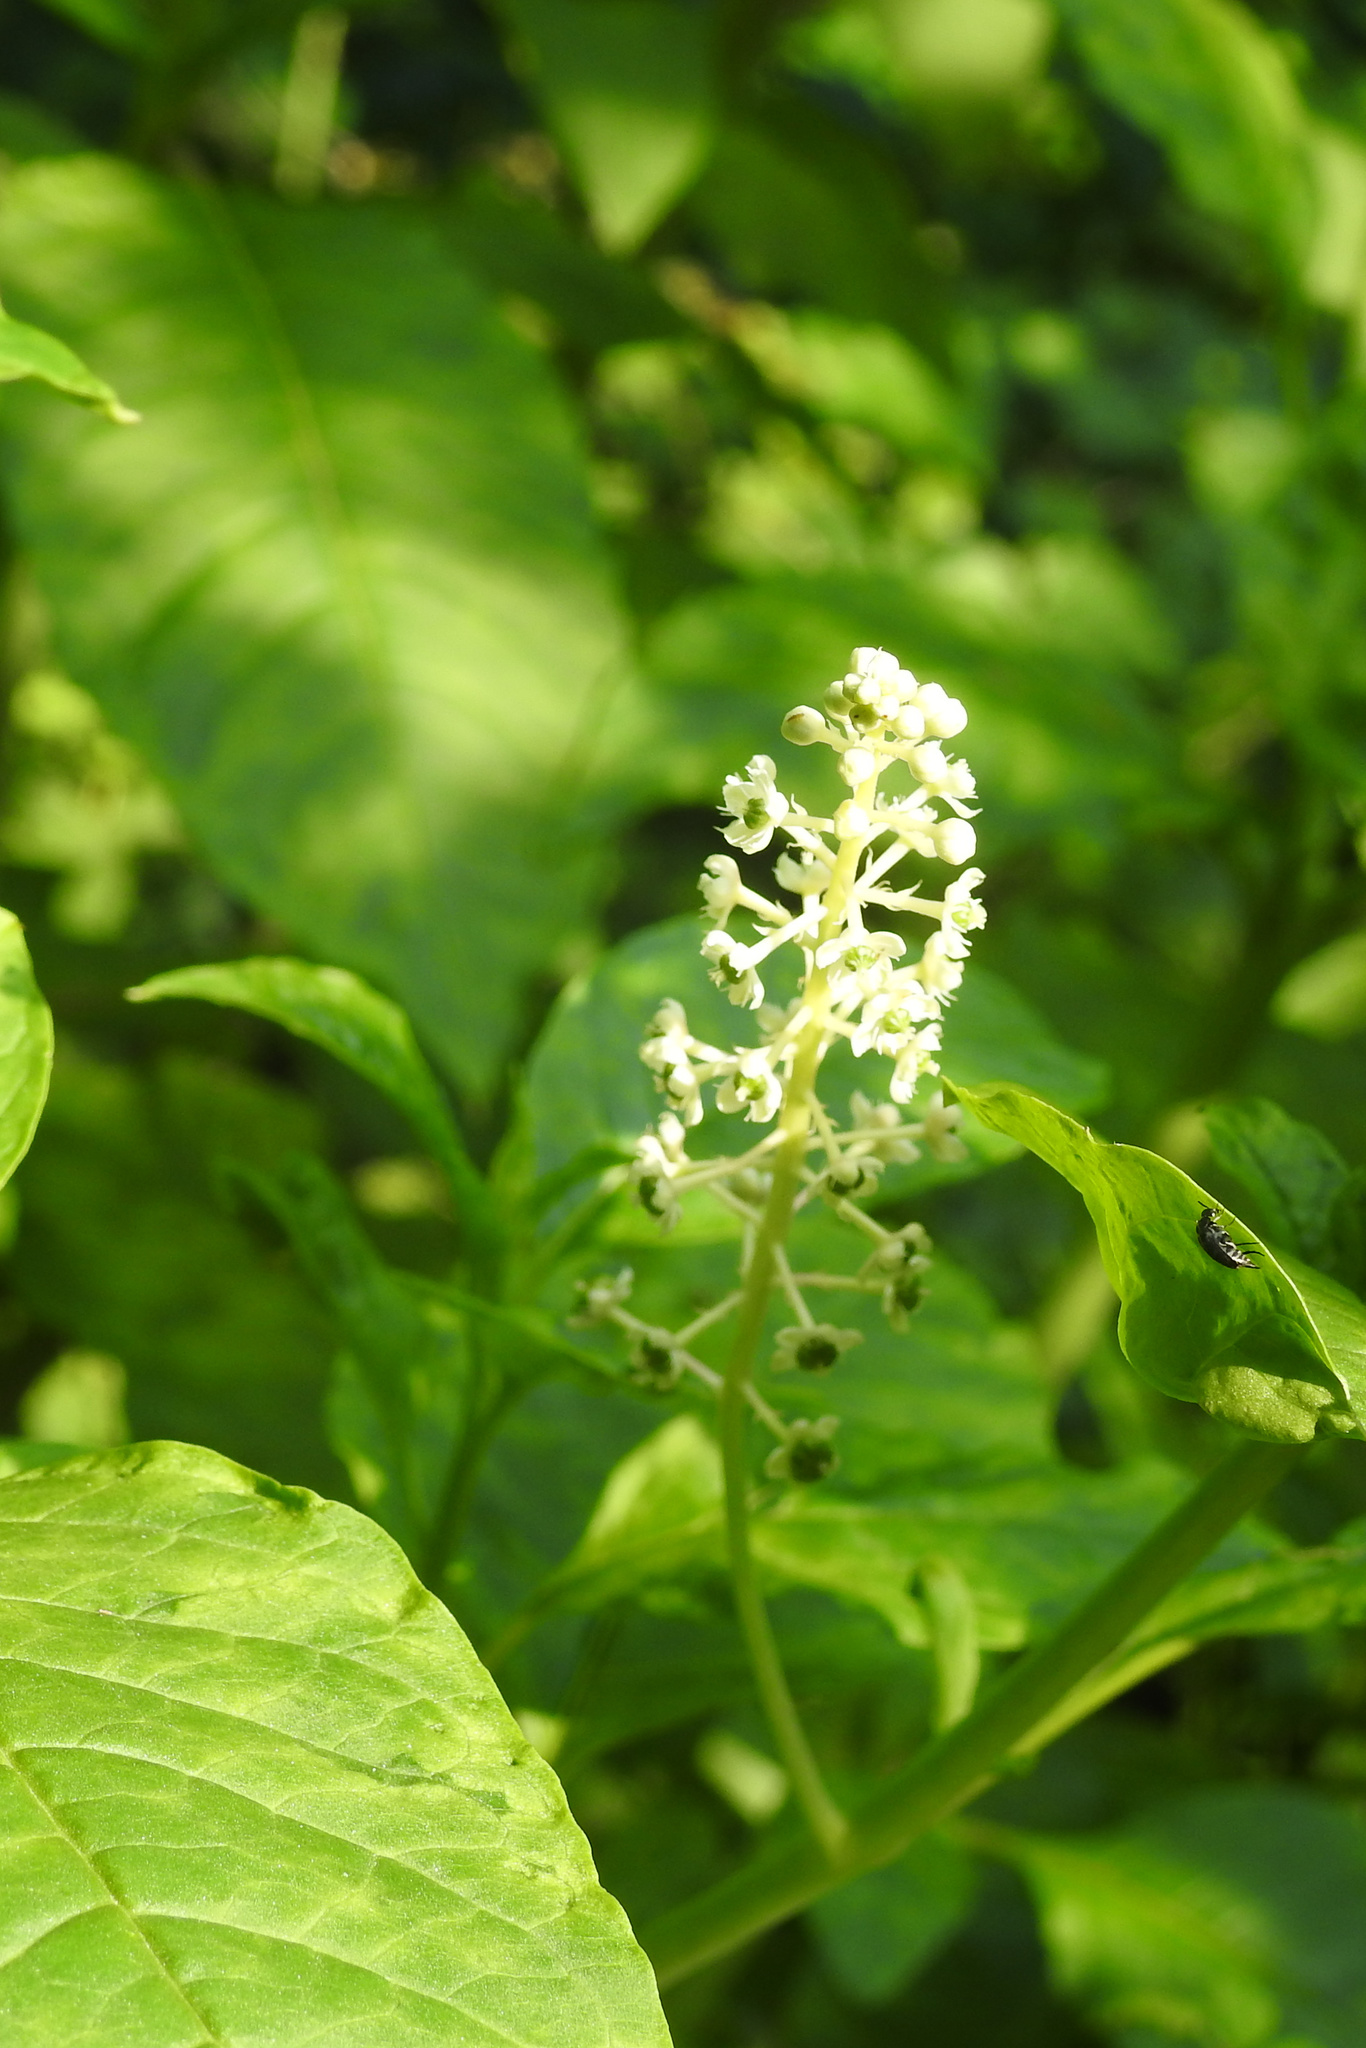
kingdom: Plantae
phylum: Tracheophyta
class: Magnoliopsida
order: Caryophyllales
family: Phytolaccaceae
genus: Phytolacca
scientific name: Phytolacca americana
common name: American pokeweed
